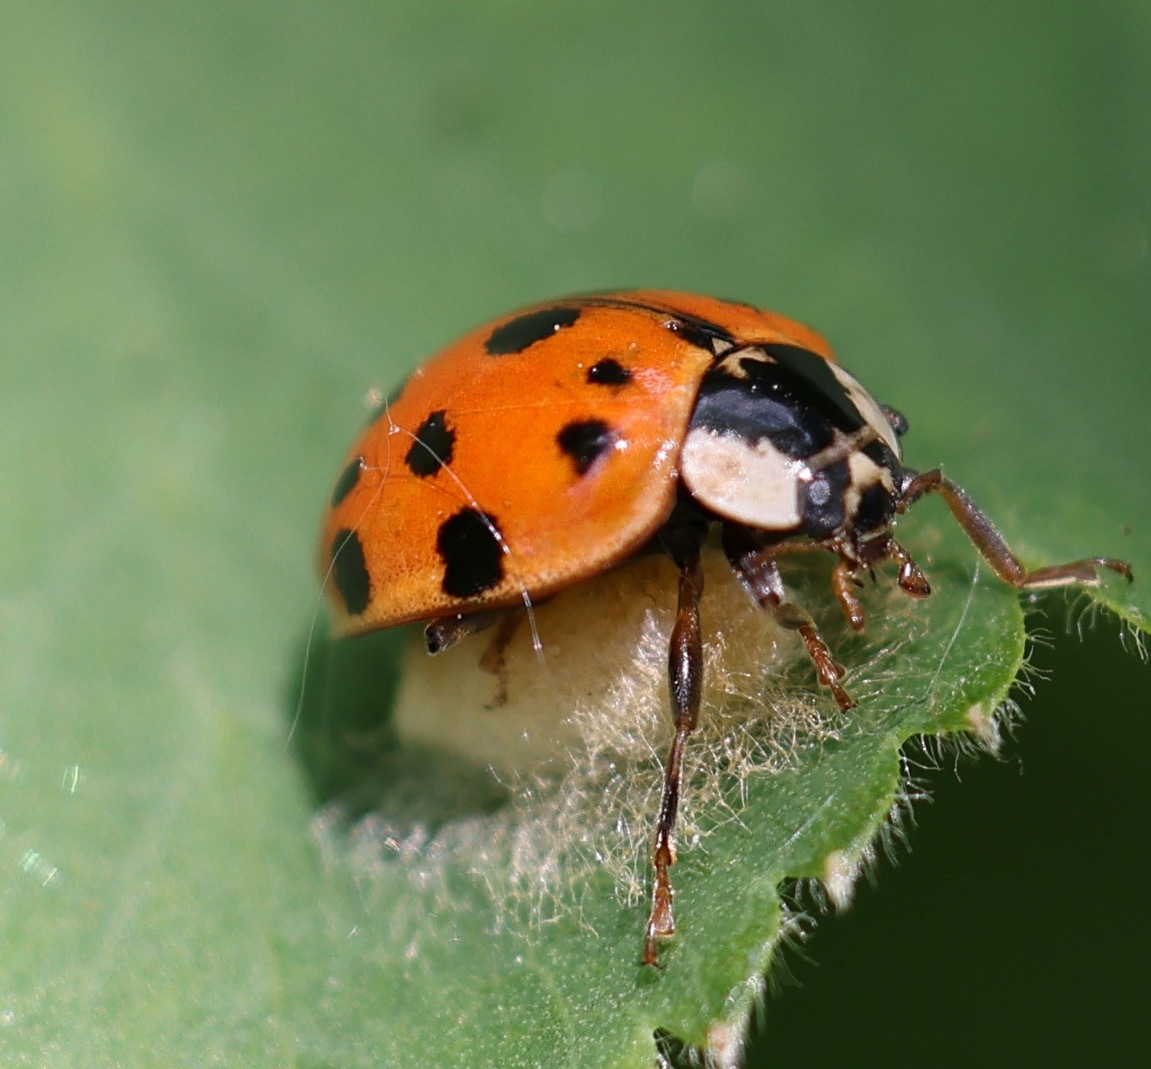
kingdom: Animalia
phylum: Arthropoda
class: Insecta
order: Coleoptera
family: Coccinellidae
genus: Harmonia
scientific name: Harmonia axyridis
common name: Harlequin ladybird
